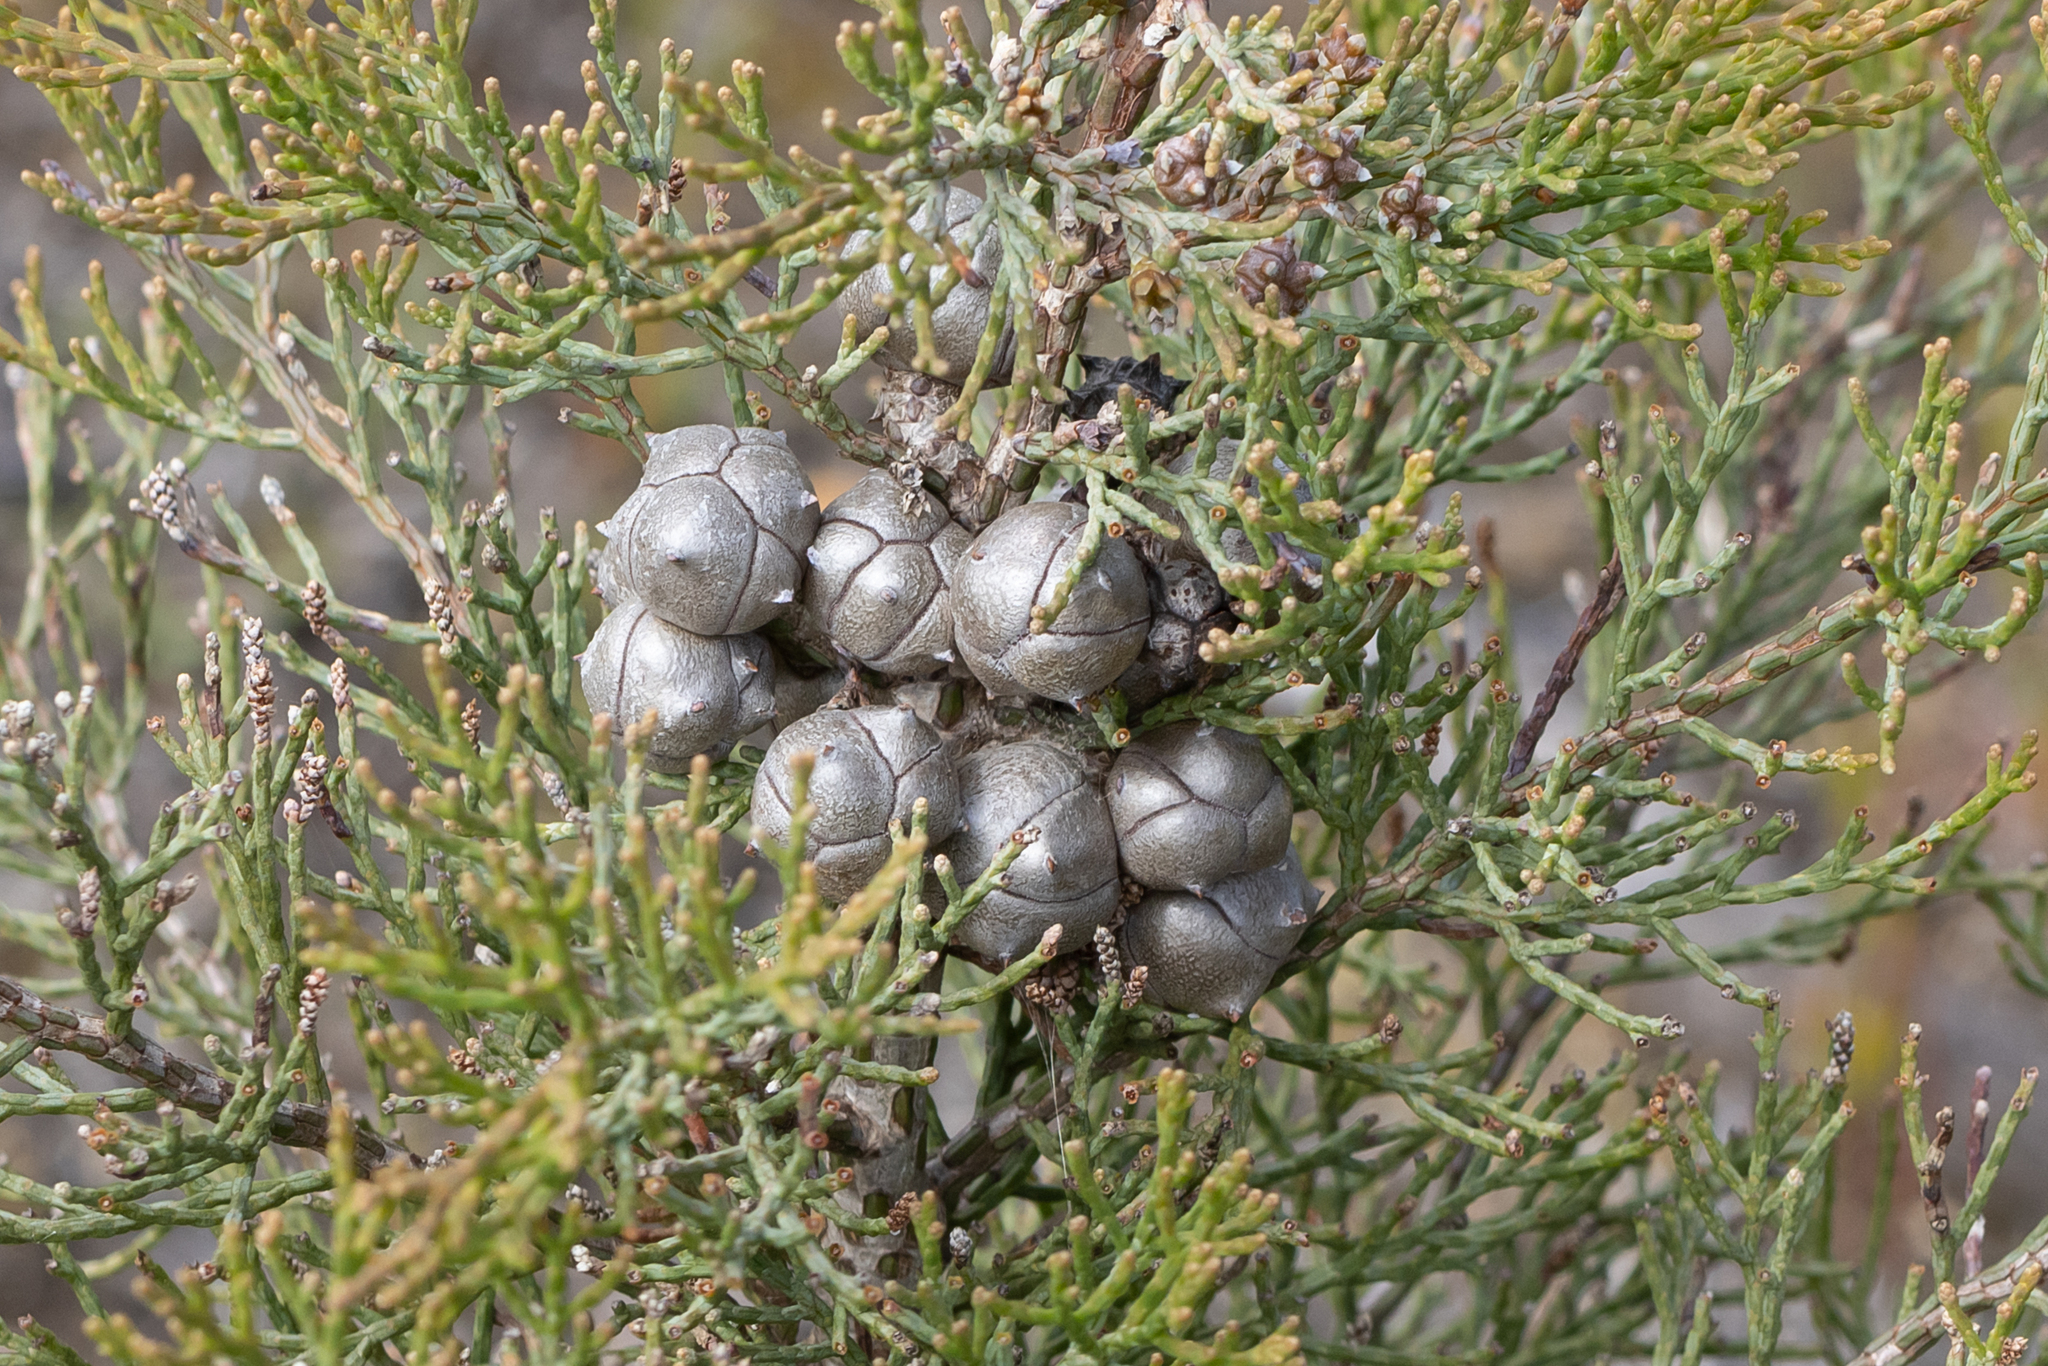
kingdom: Plantae
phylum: Tracheophyta
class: Pinopsida
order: Pinales
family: Cupressaceae
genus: Callitris
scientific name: Callitris roei
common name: Roe's cypress-pine
